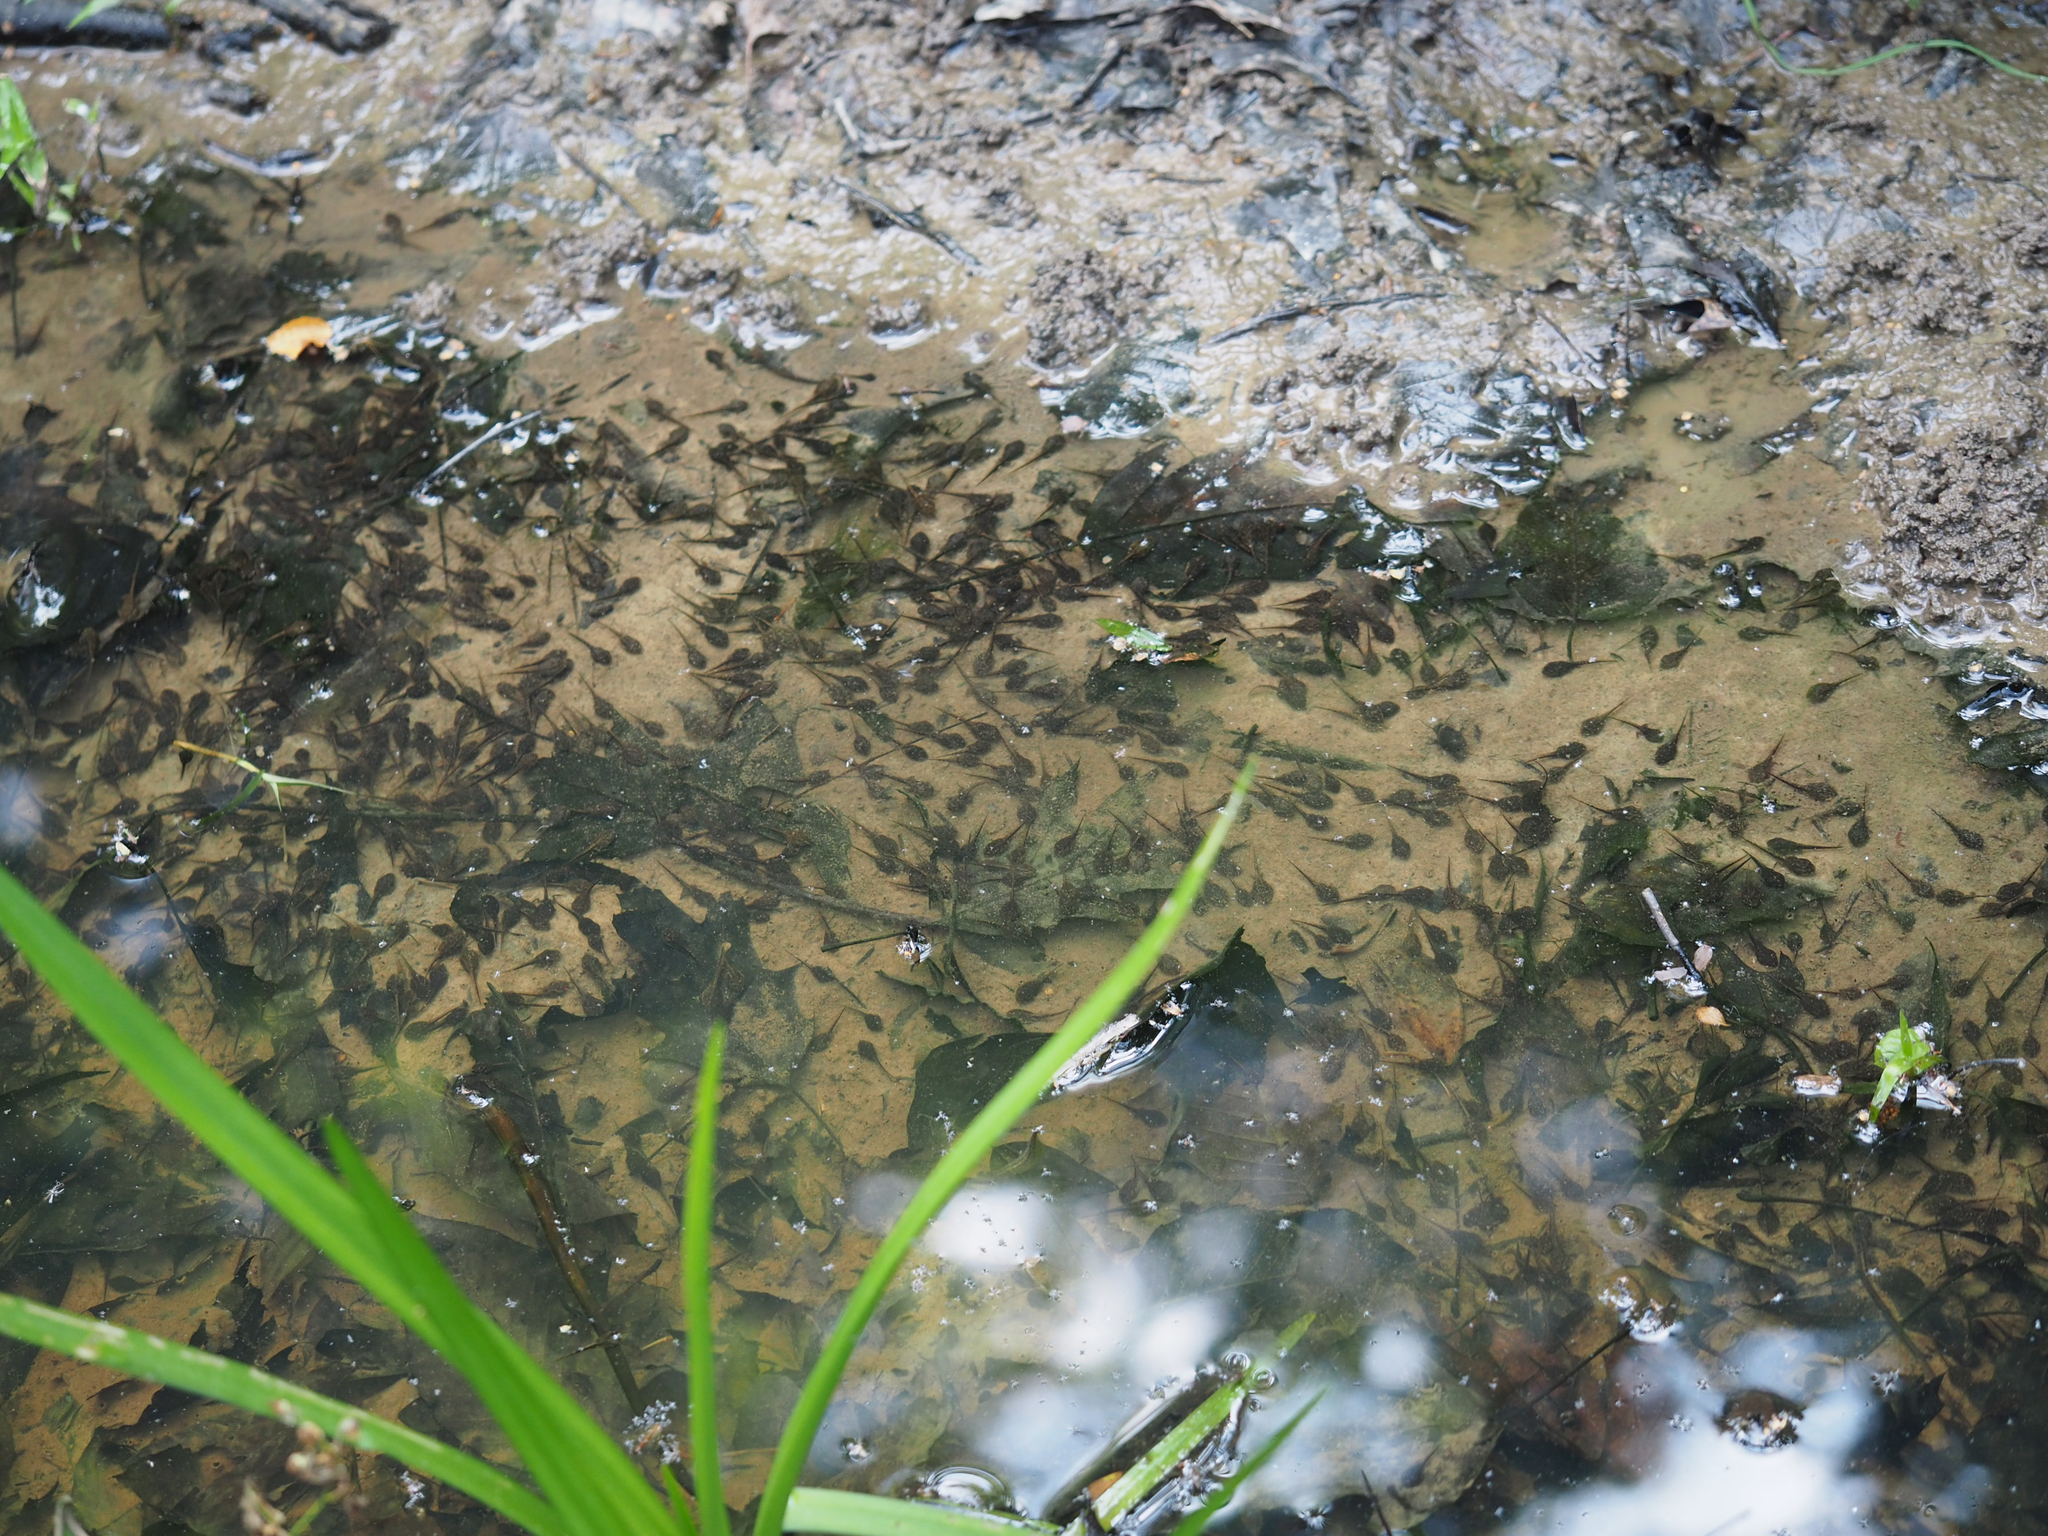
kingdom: Animalia
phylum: Chordata
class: Amphibia
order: Anura
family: Bufonidae
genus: Anaxyrus
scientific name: Anaxyrus americanus
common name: American toad
